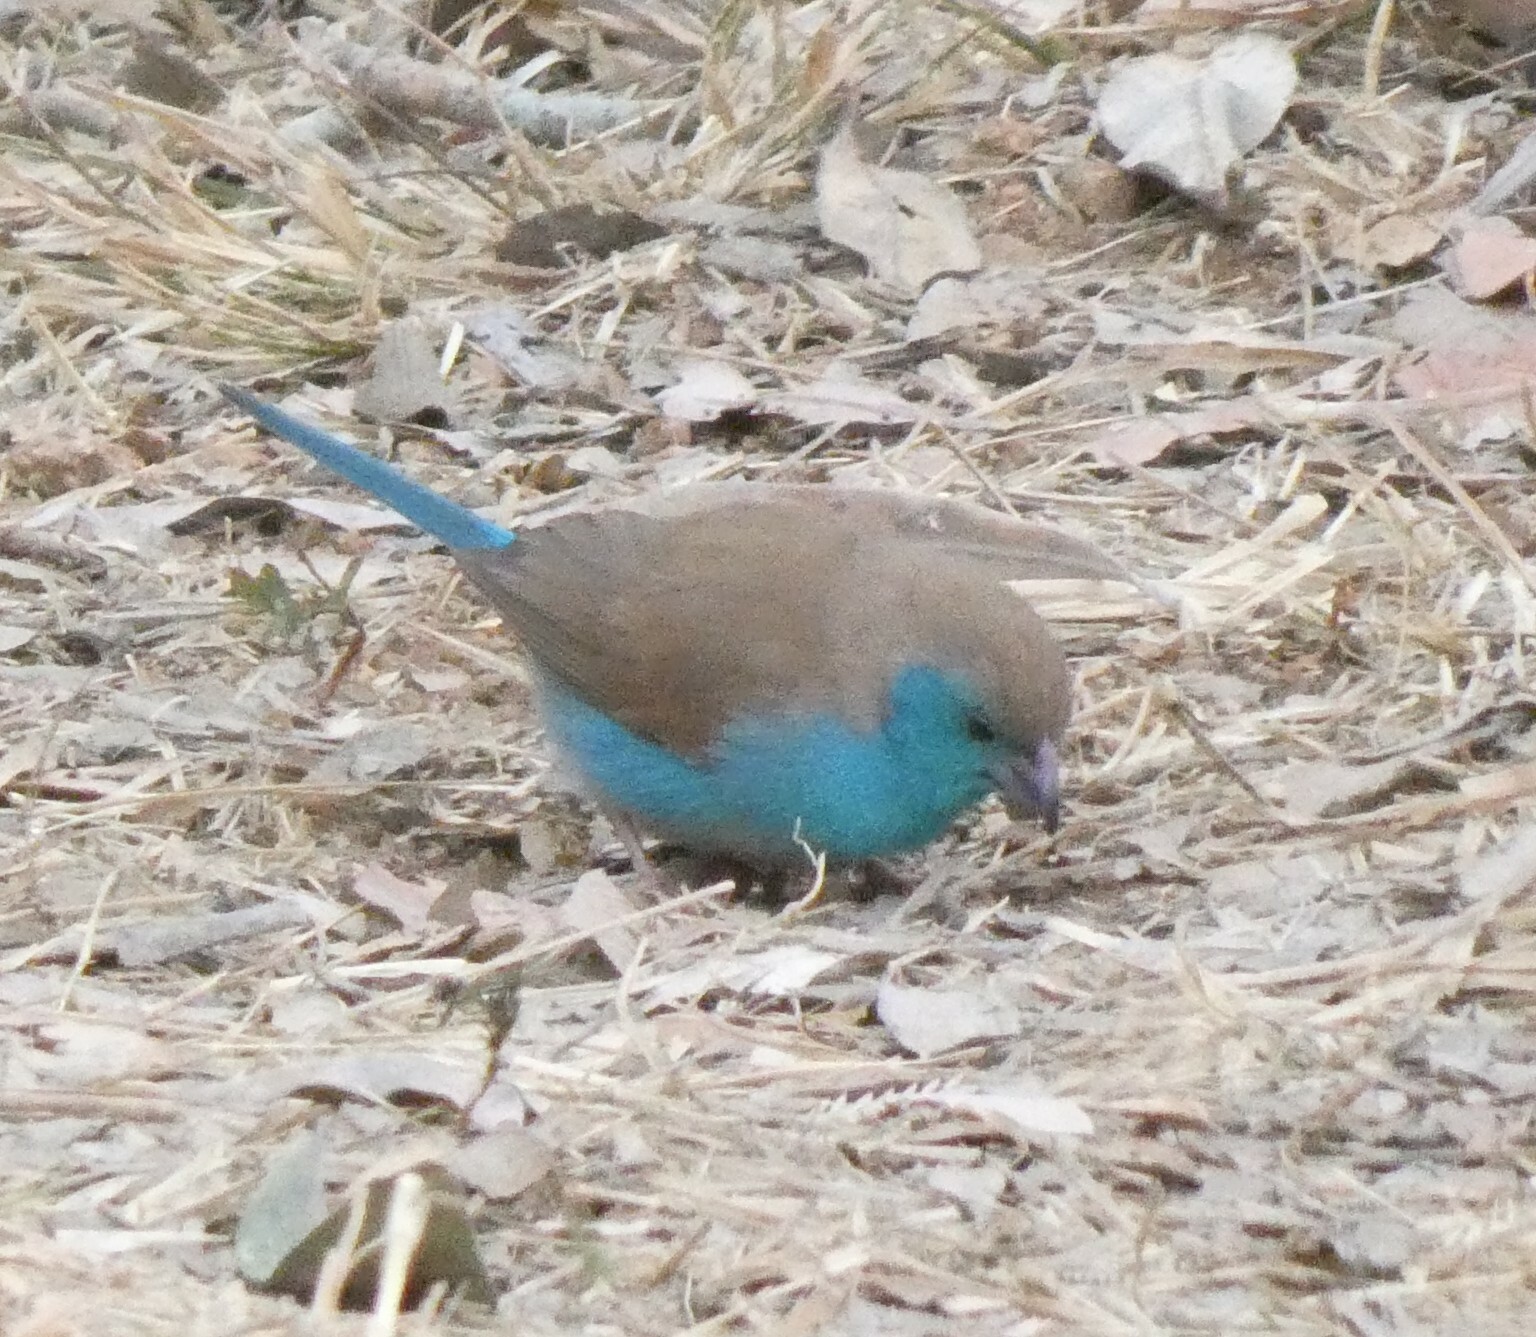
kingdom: Animalia
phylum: Chordata
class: Aves
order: Passeriformes
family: Estrildidae
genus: Uraeginthus
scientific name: Uraeginthus angolensis
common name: Blue waxbill
